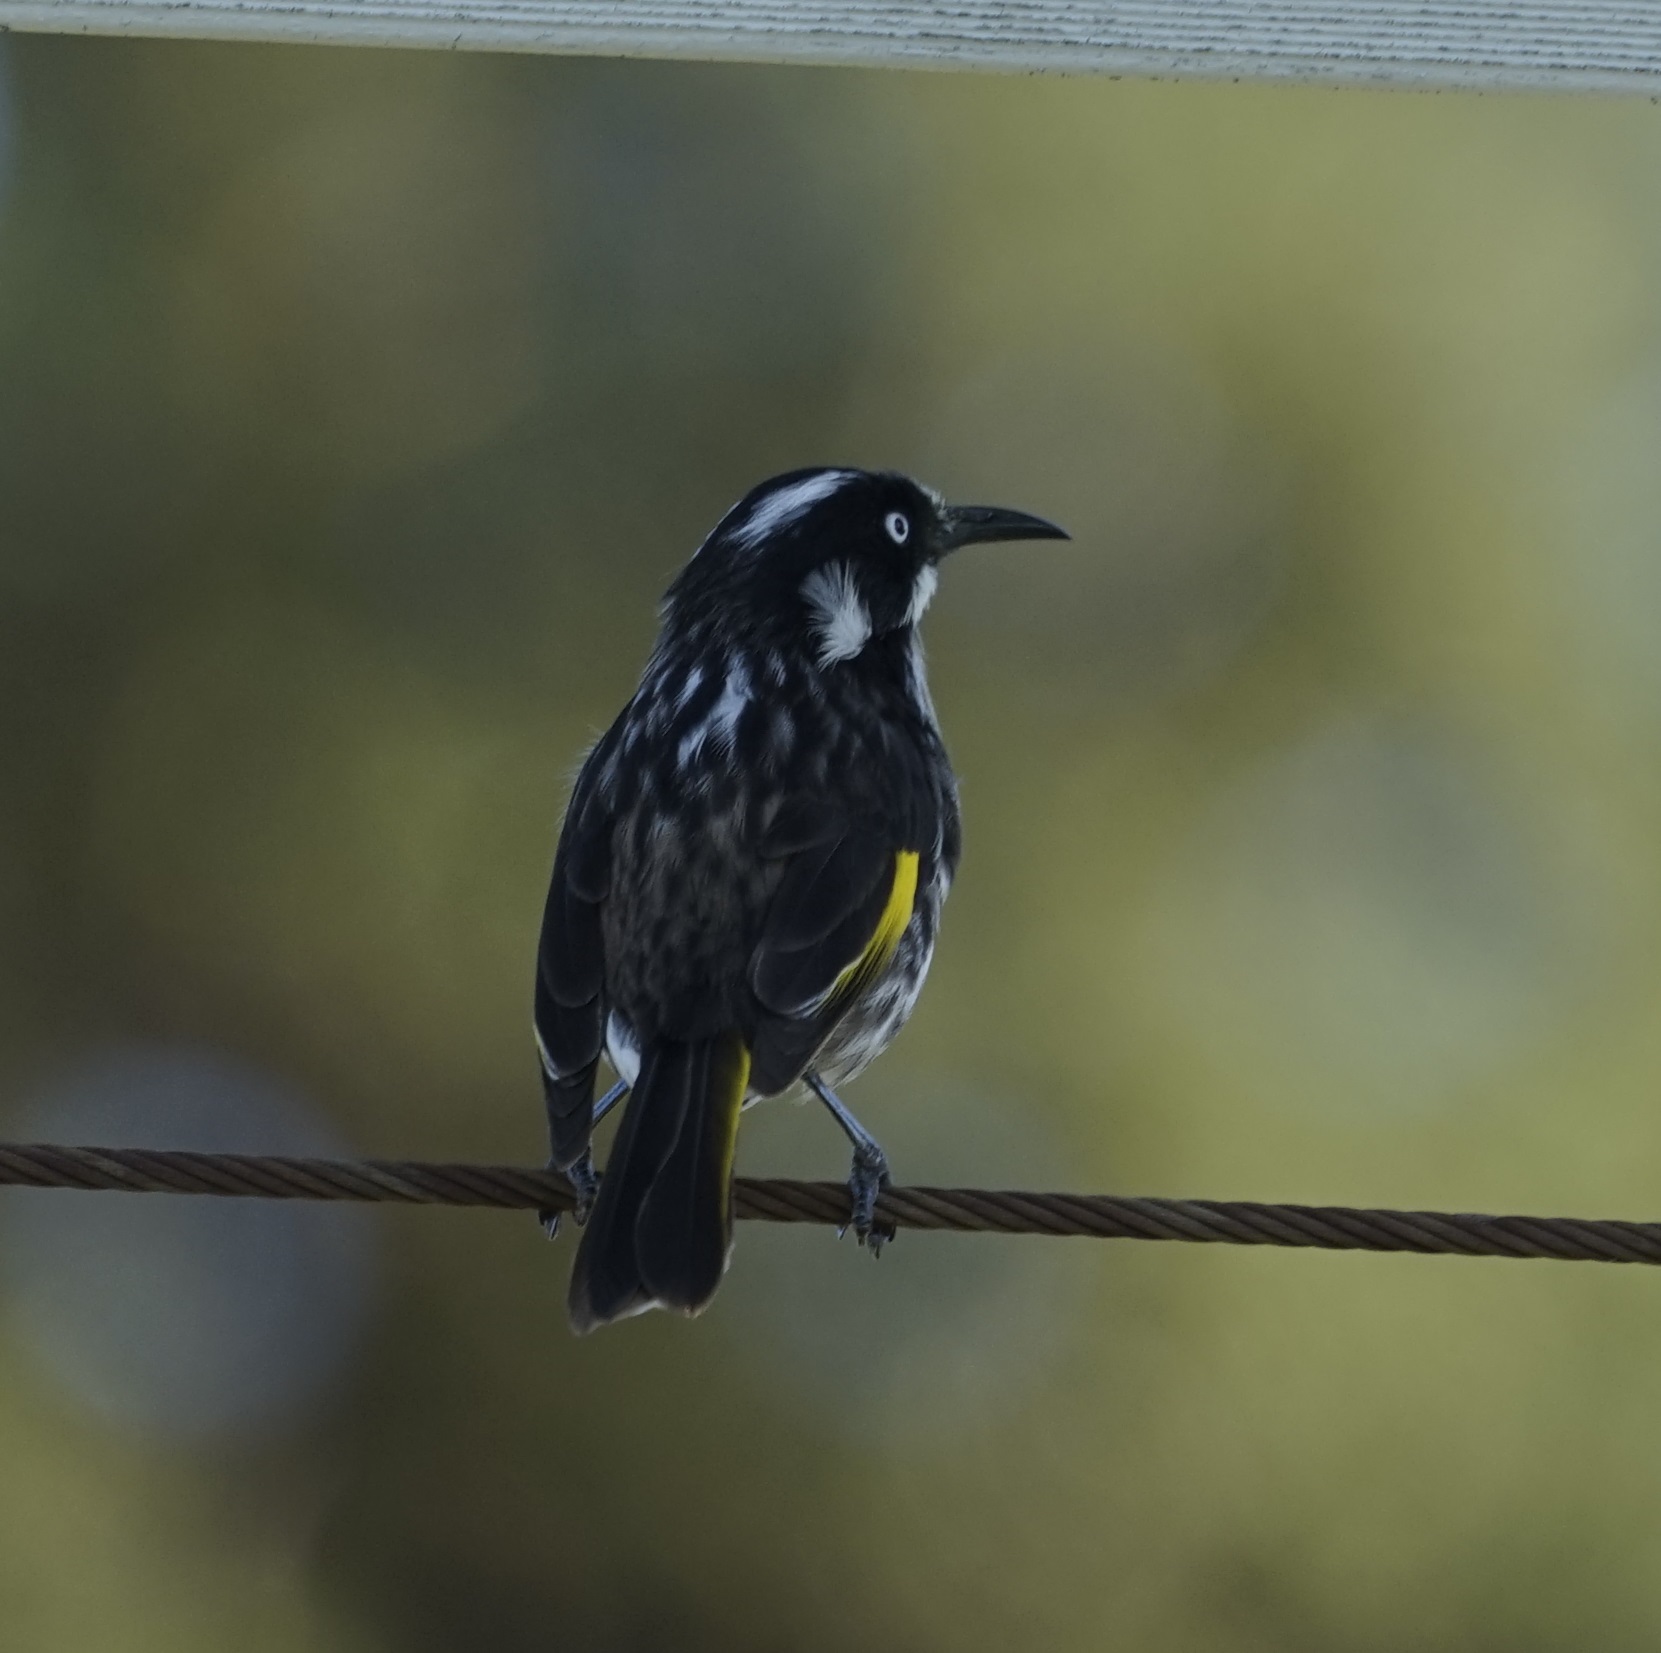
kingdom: Animalia
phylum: Chordata
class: Aves
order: Passeriformes
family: Meliphagidae
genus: Phylidonyris
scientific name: Phylidonyris novaehollandiae
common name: New holland honeyeater
